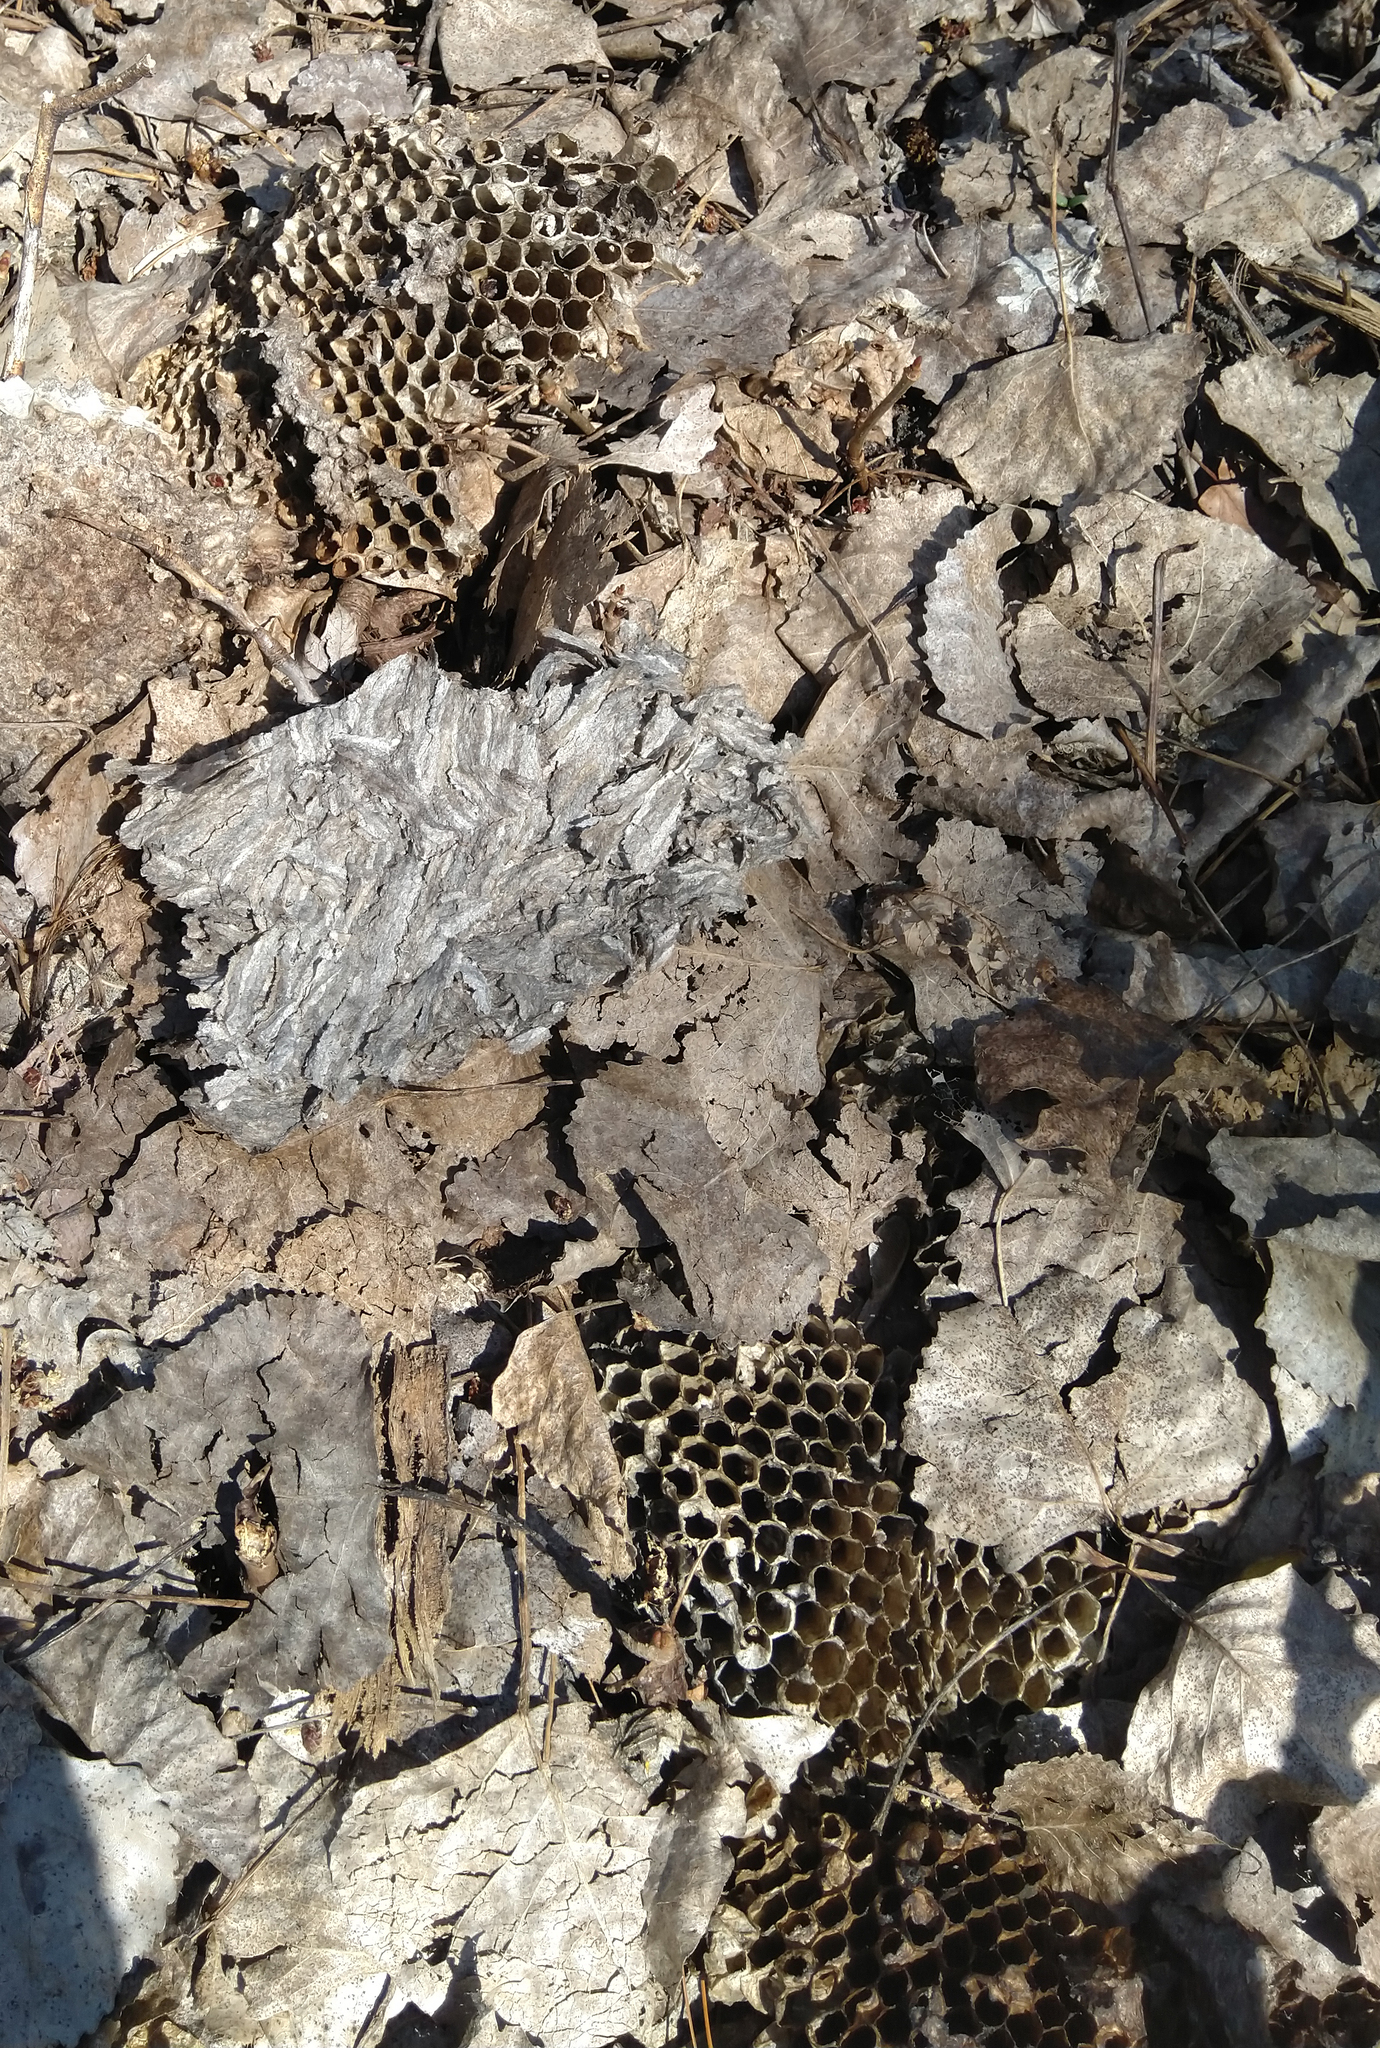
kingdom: Animalia
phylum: Arthropoda
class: Insecta
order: Hymenoptera
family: Vespidae
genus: Dolichovespula
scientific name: Dolichovespula
